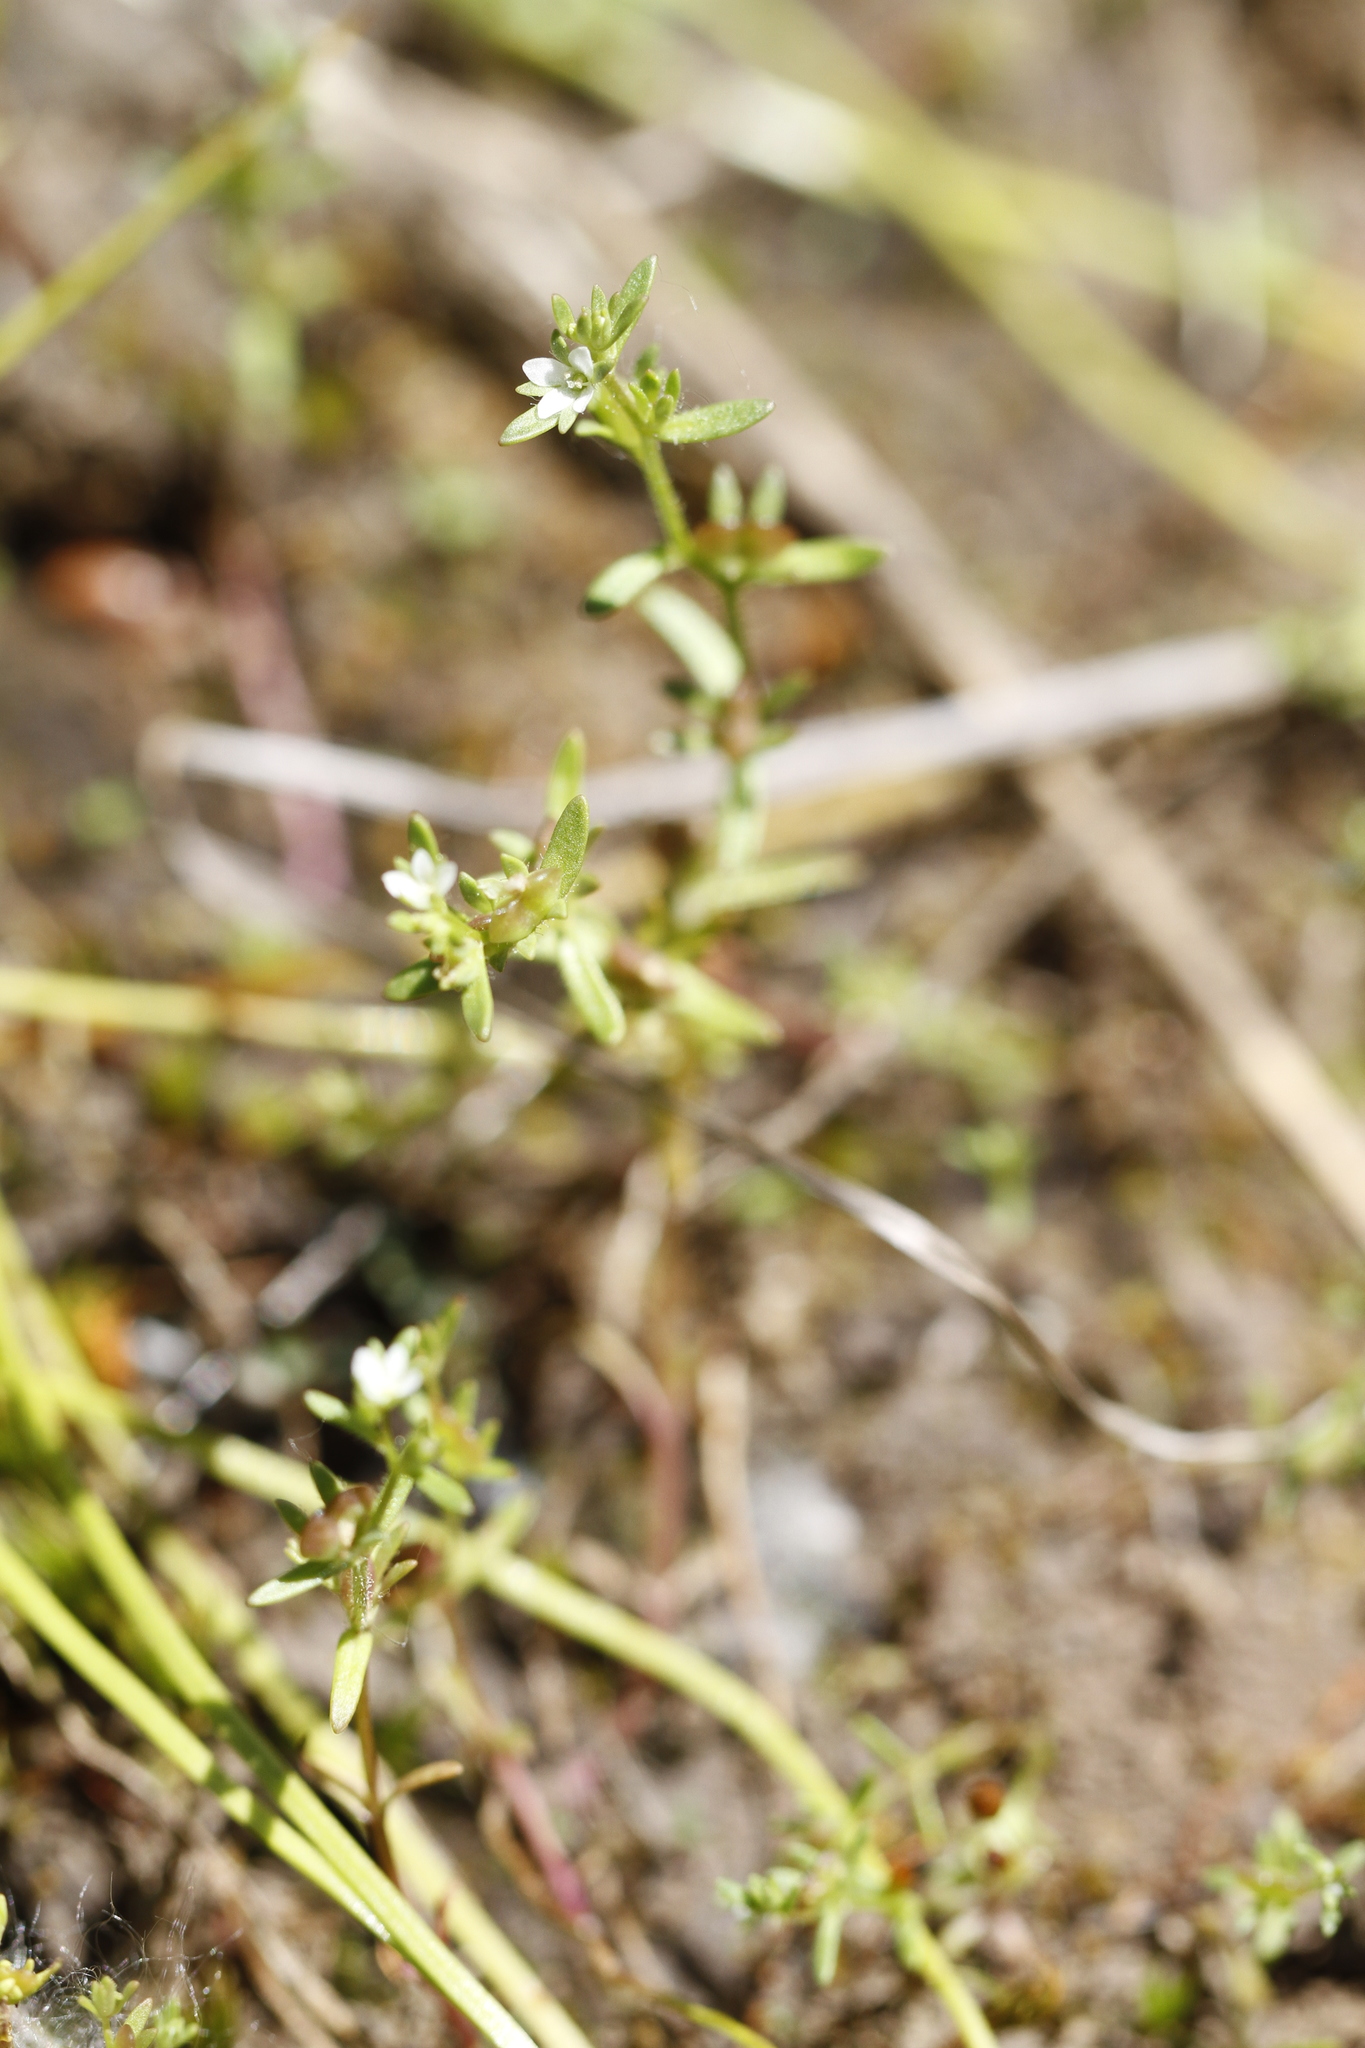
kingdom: Plantae
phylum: Tracheophyta
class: Magnoliopsida
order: Lamiales
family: Plantaginaceae
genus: Veronica
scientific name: Veronica peregrina
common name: Neckweed
